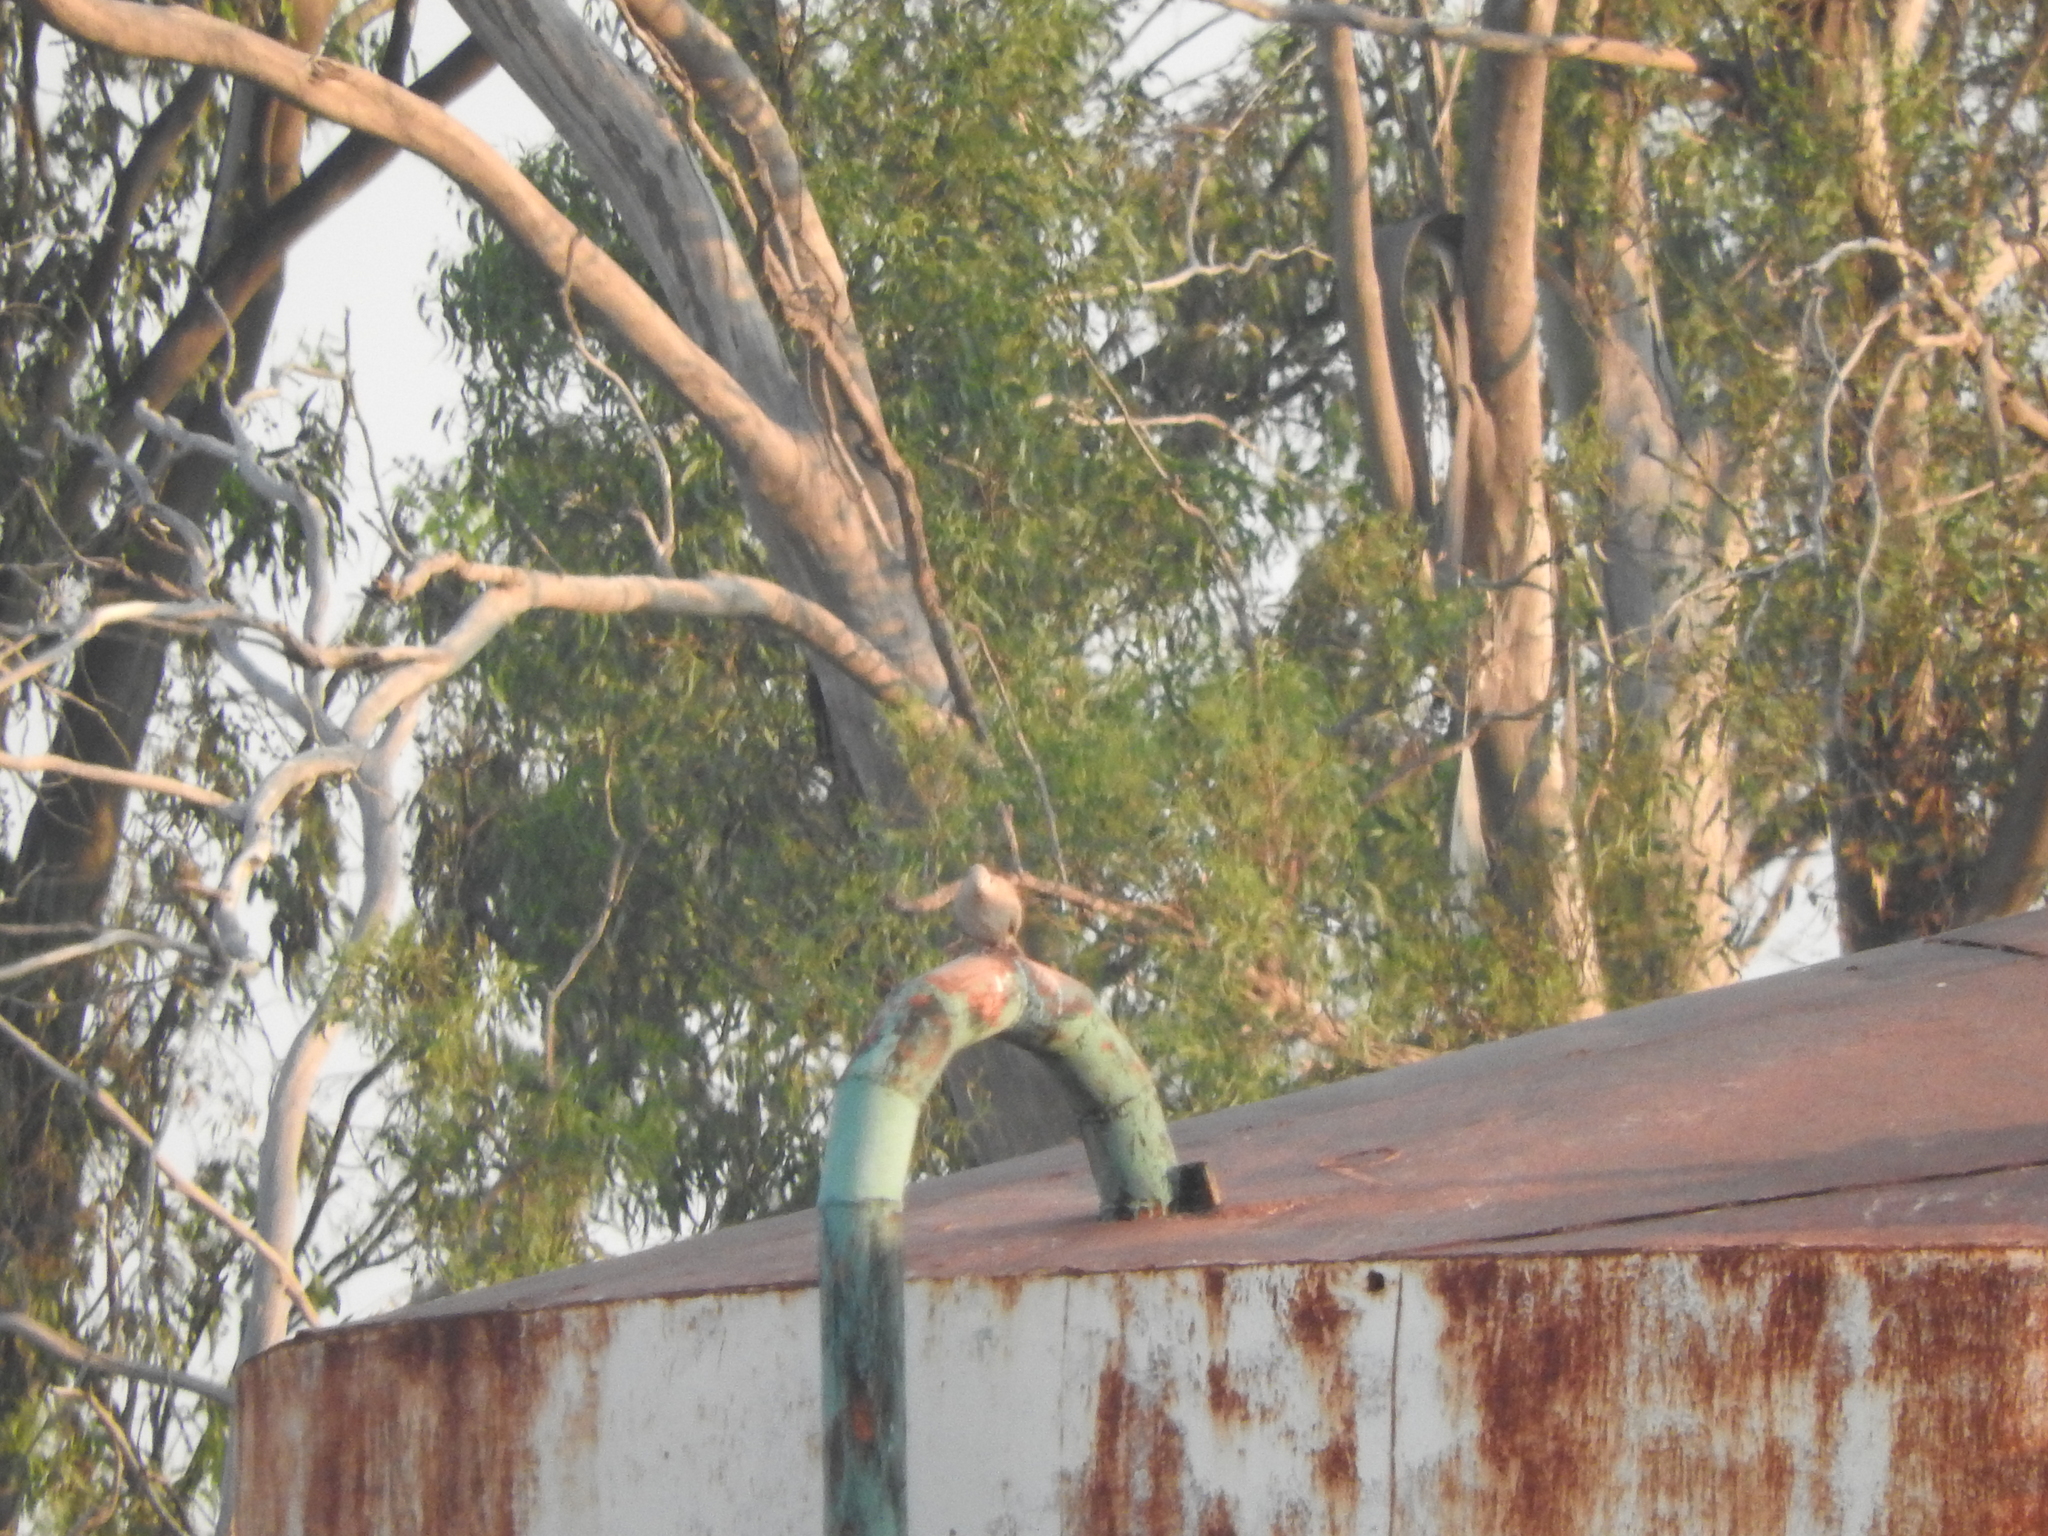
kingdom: Animalia
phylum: Chordata
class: Aves
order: Columbiformes
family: Columbidae
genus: Streptopelia
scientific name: Streptopelia decaocto
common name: Eurasian collared dove
